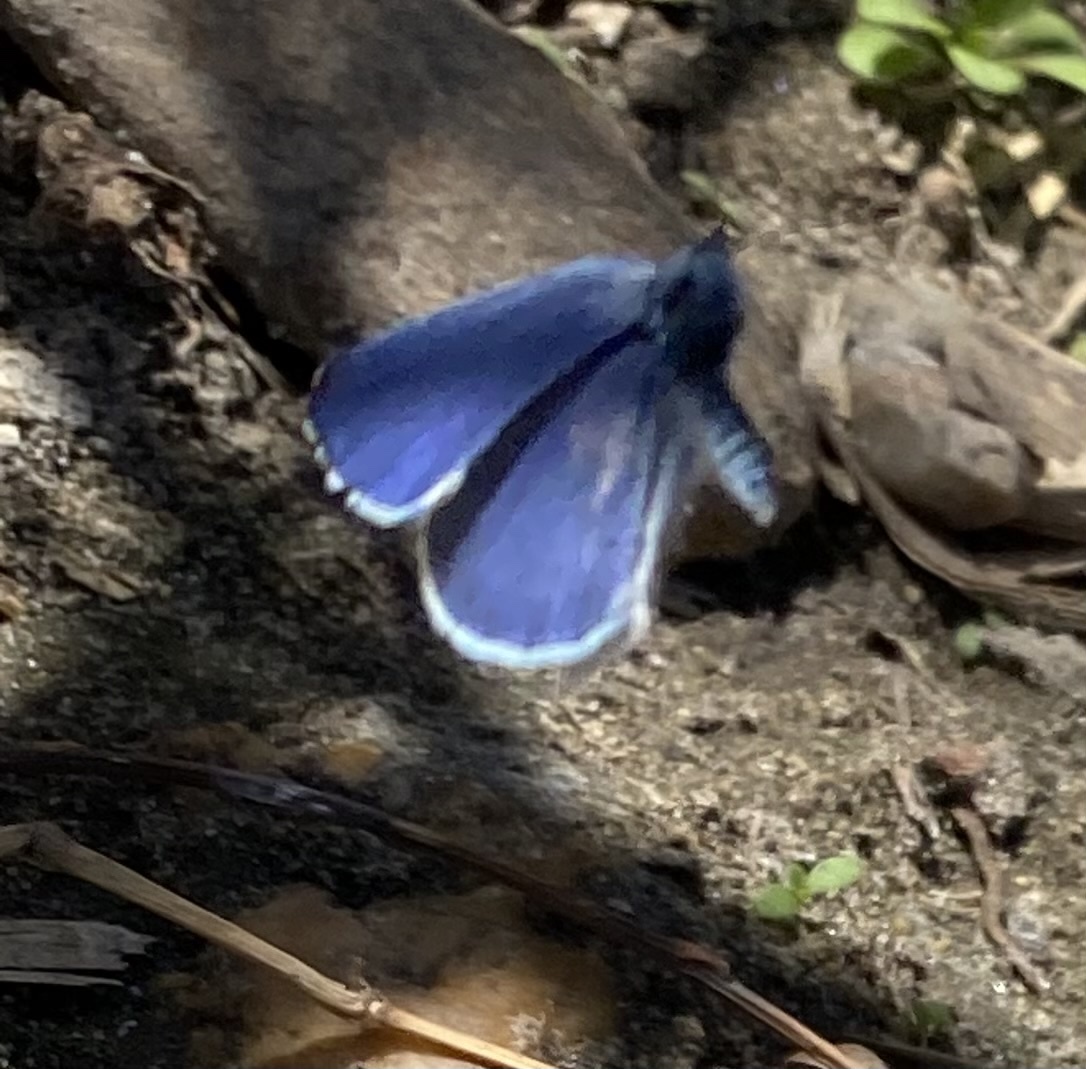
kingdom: Animalia
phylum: Arthropoda
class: Insecta
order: Lepidoptera
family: Lycaenidae
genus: Celastrina
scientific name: Celastrina argiolus
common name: Holly blue
